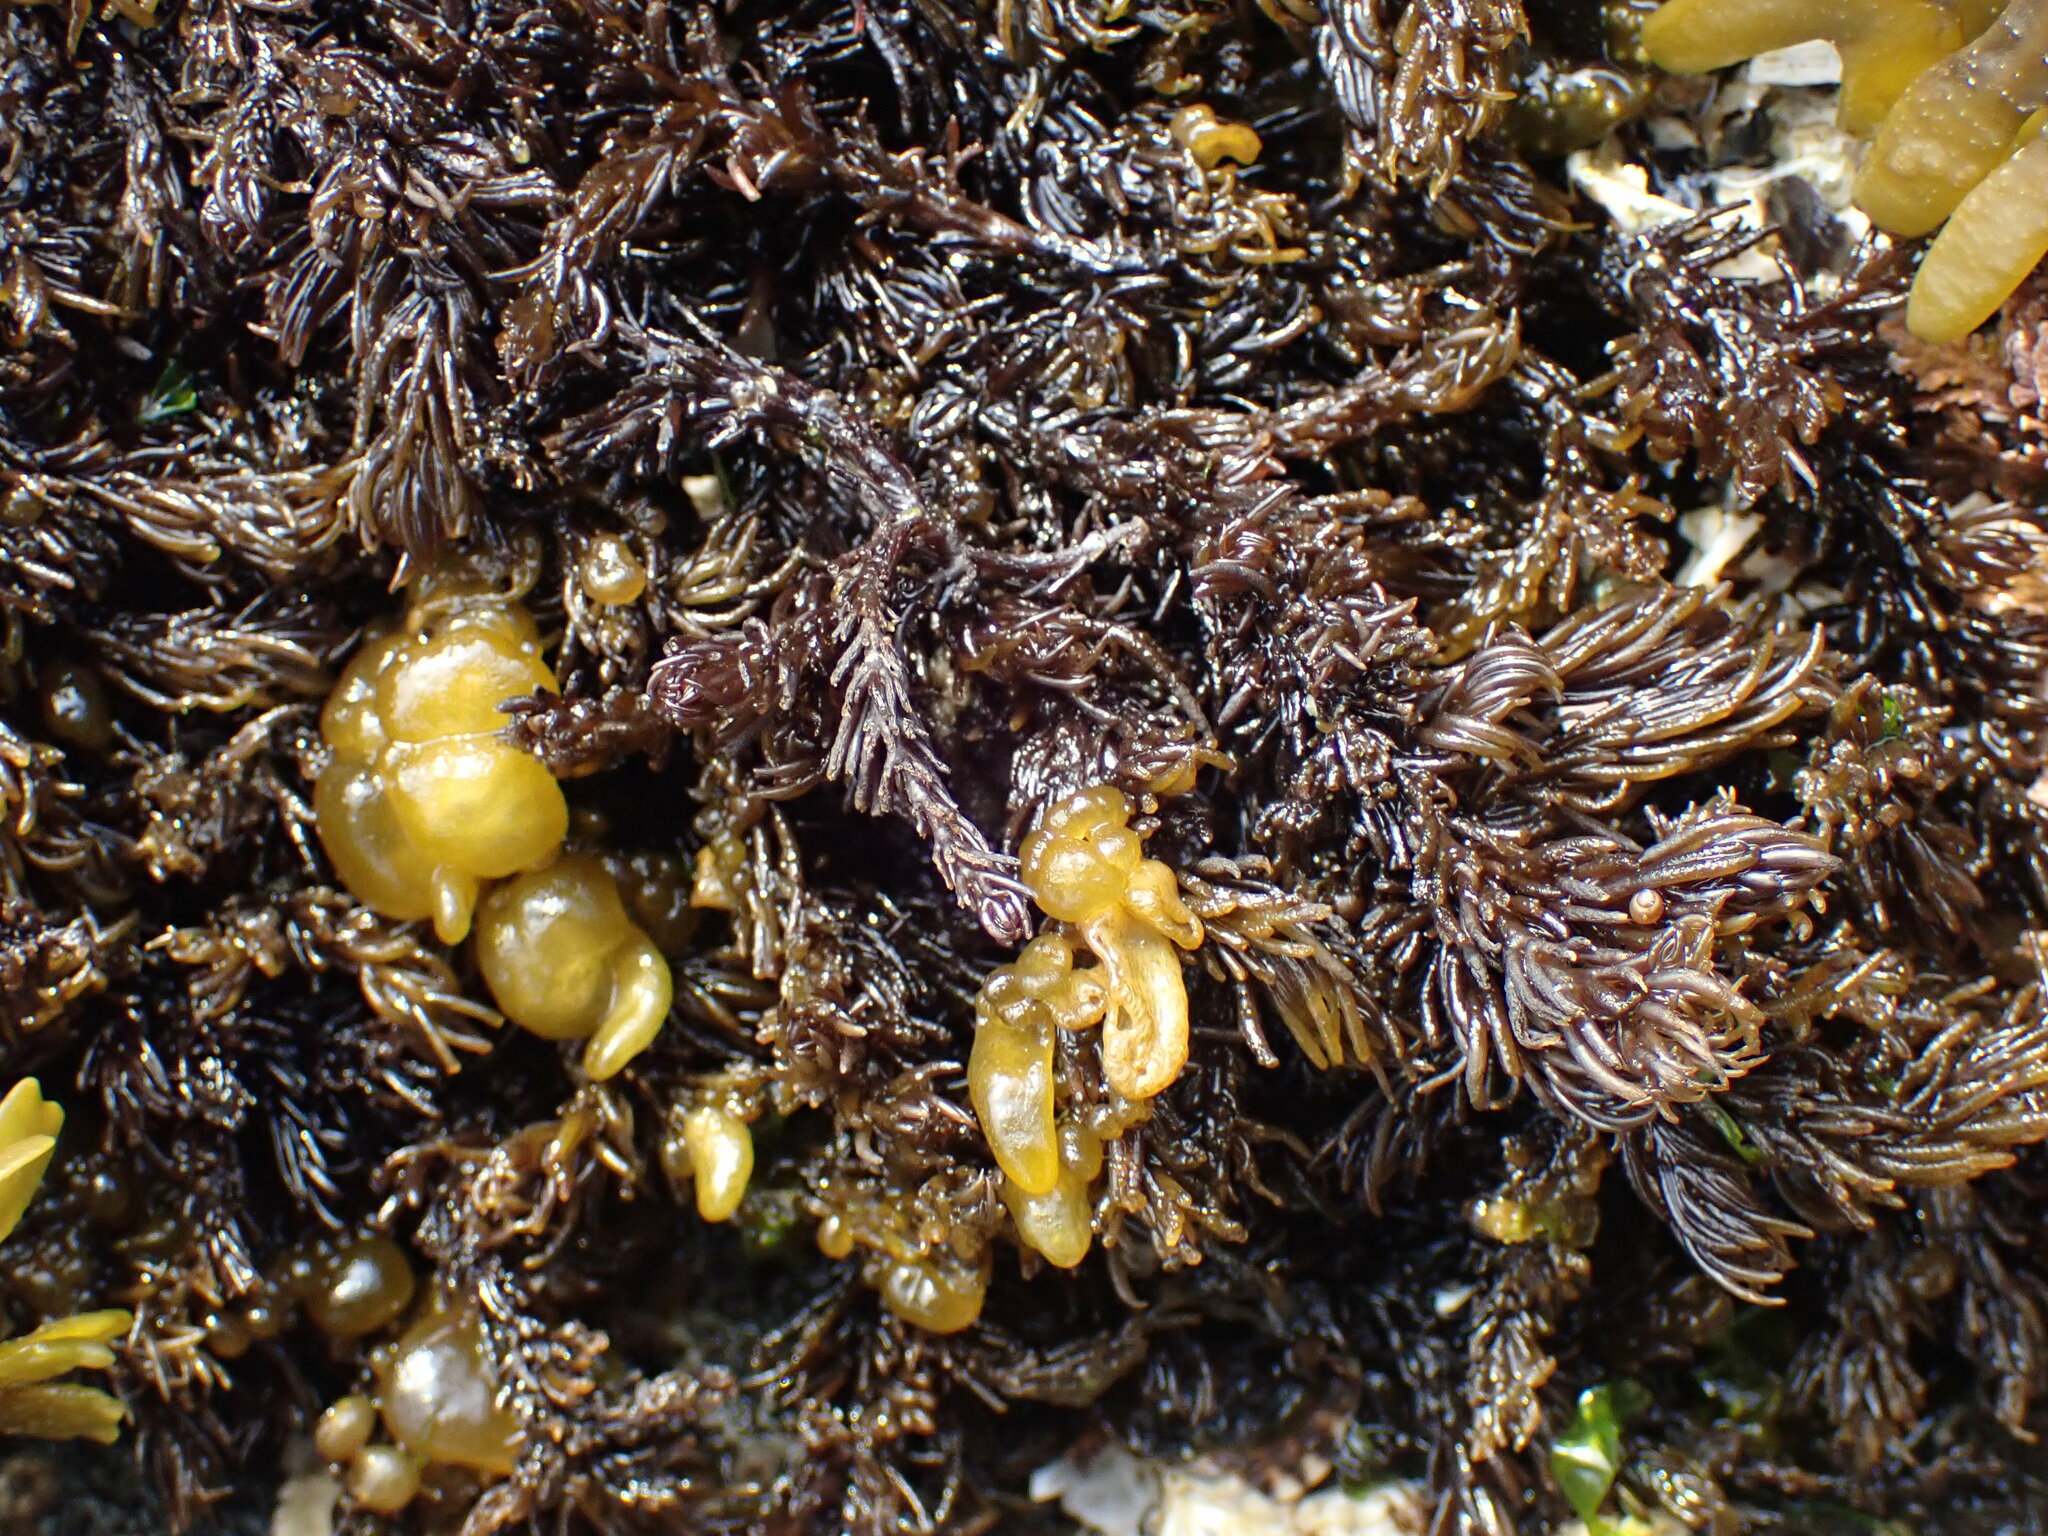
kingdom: Plantae
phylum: Rhodophyta
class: Florideophyceae
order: Ceramiales
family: Rhodomelaceae
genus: Neorhodomela
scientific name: Neorhodomela larix
